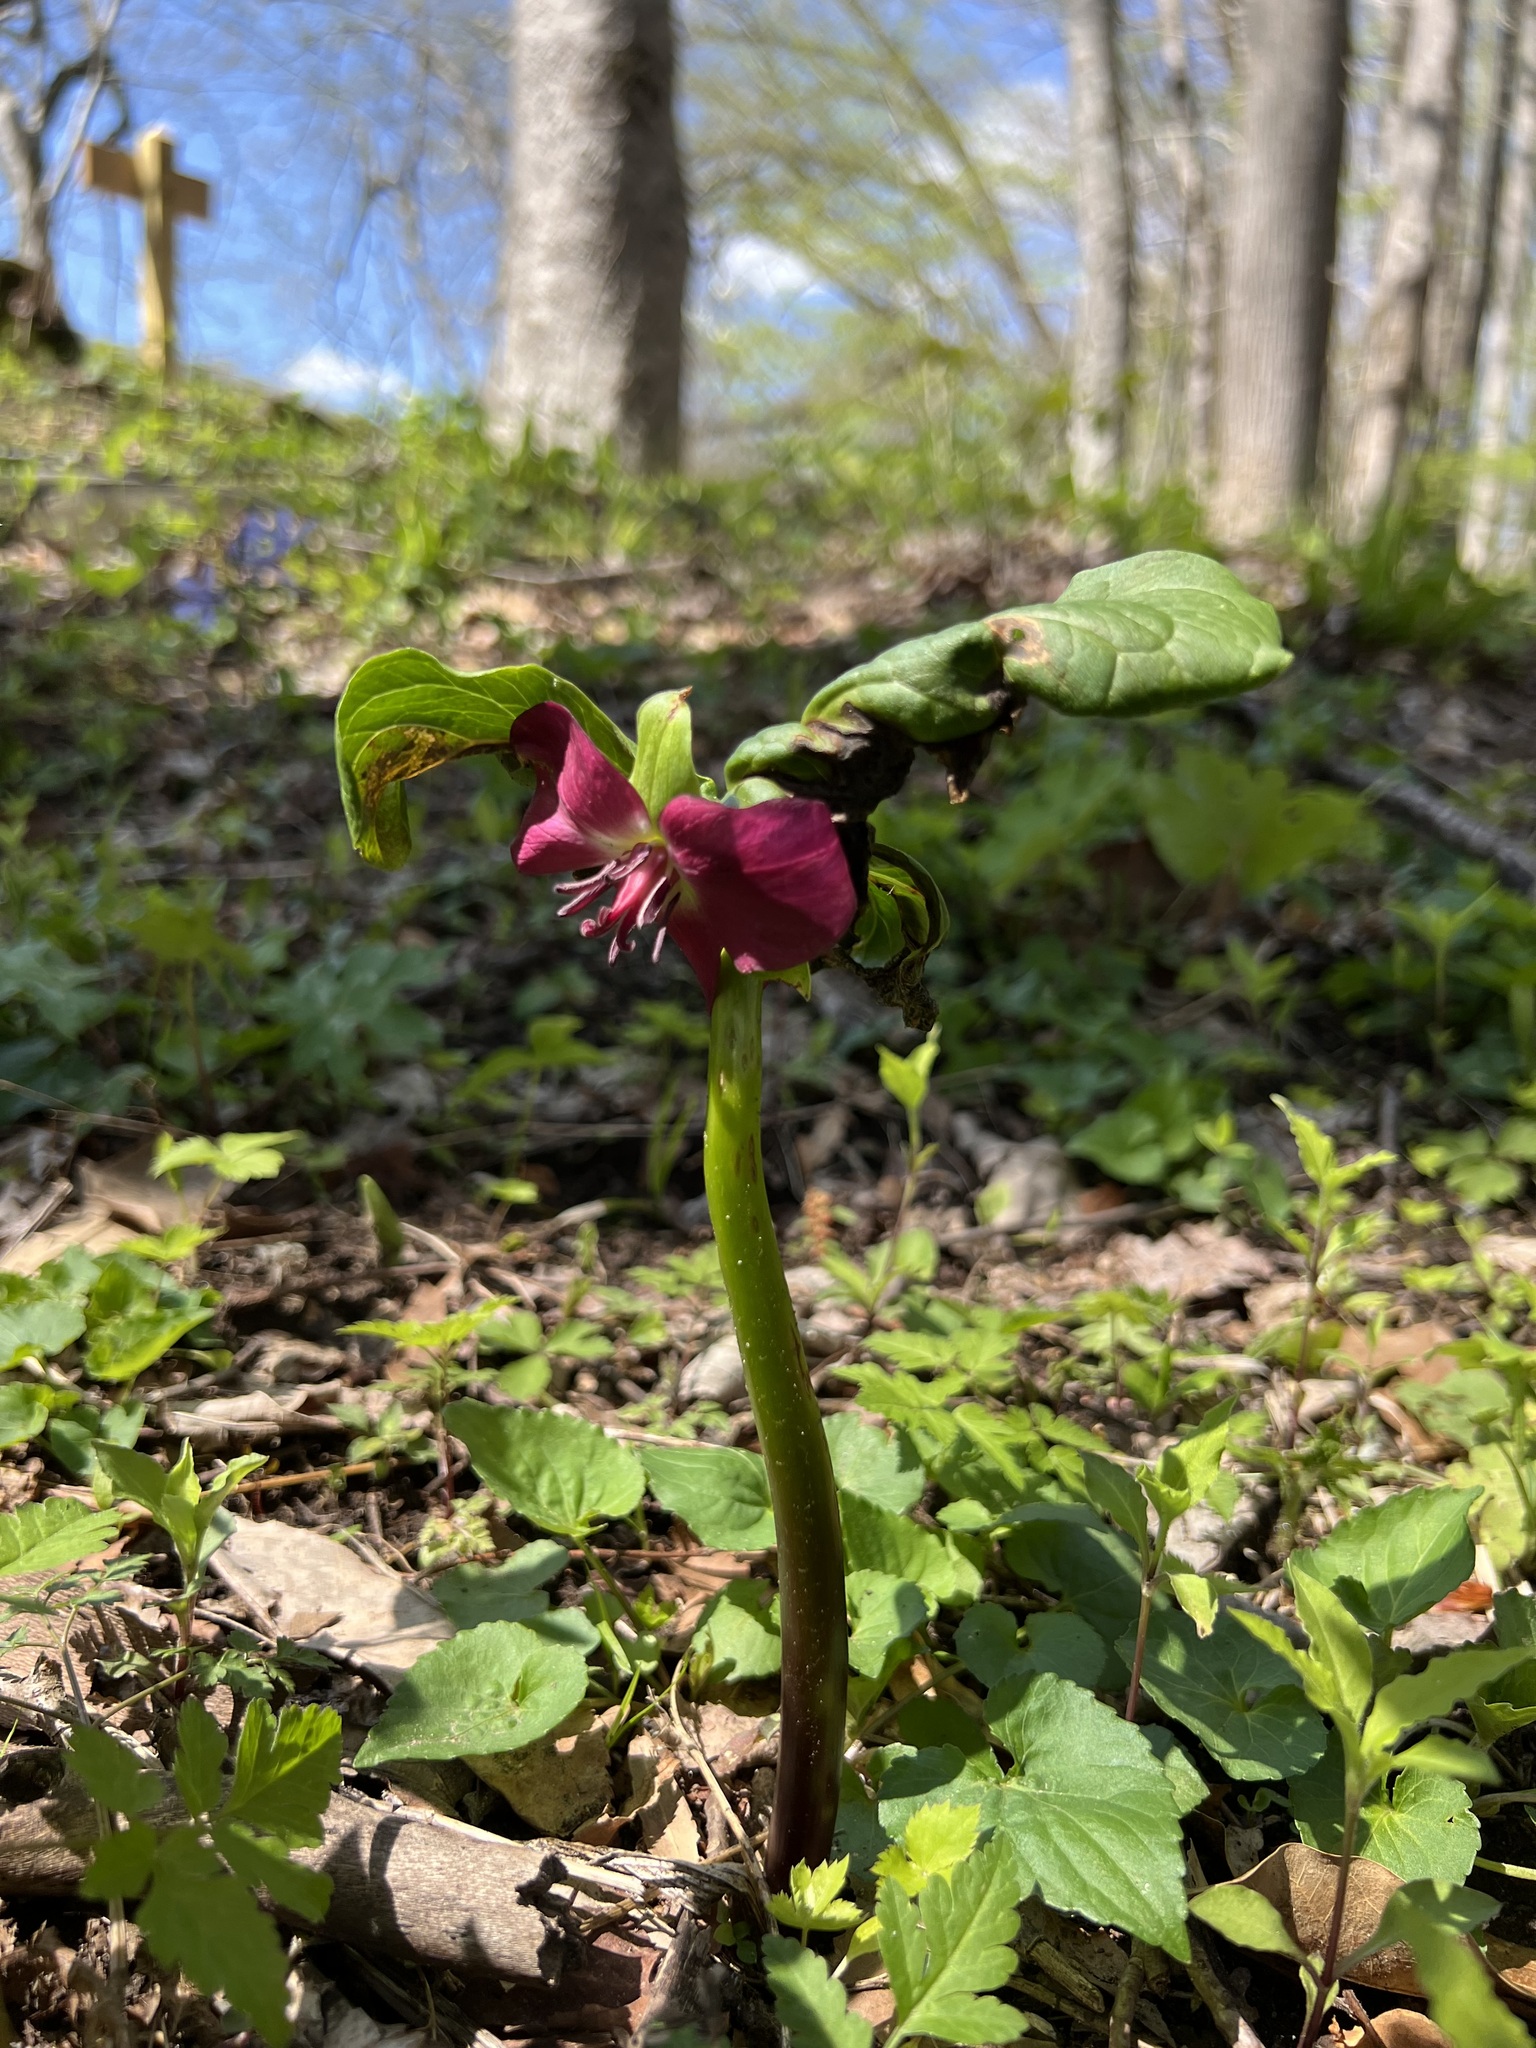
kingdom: Plantae
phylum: Tracheophyta
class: Liliopsida
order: Liliales
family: Melanthiaceae
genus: Trillium
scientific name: Trillium vaseyi
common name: Sweet trillium
